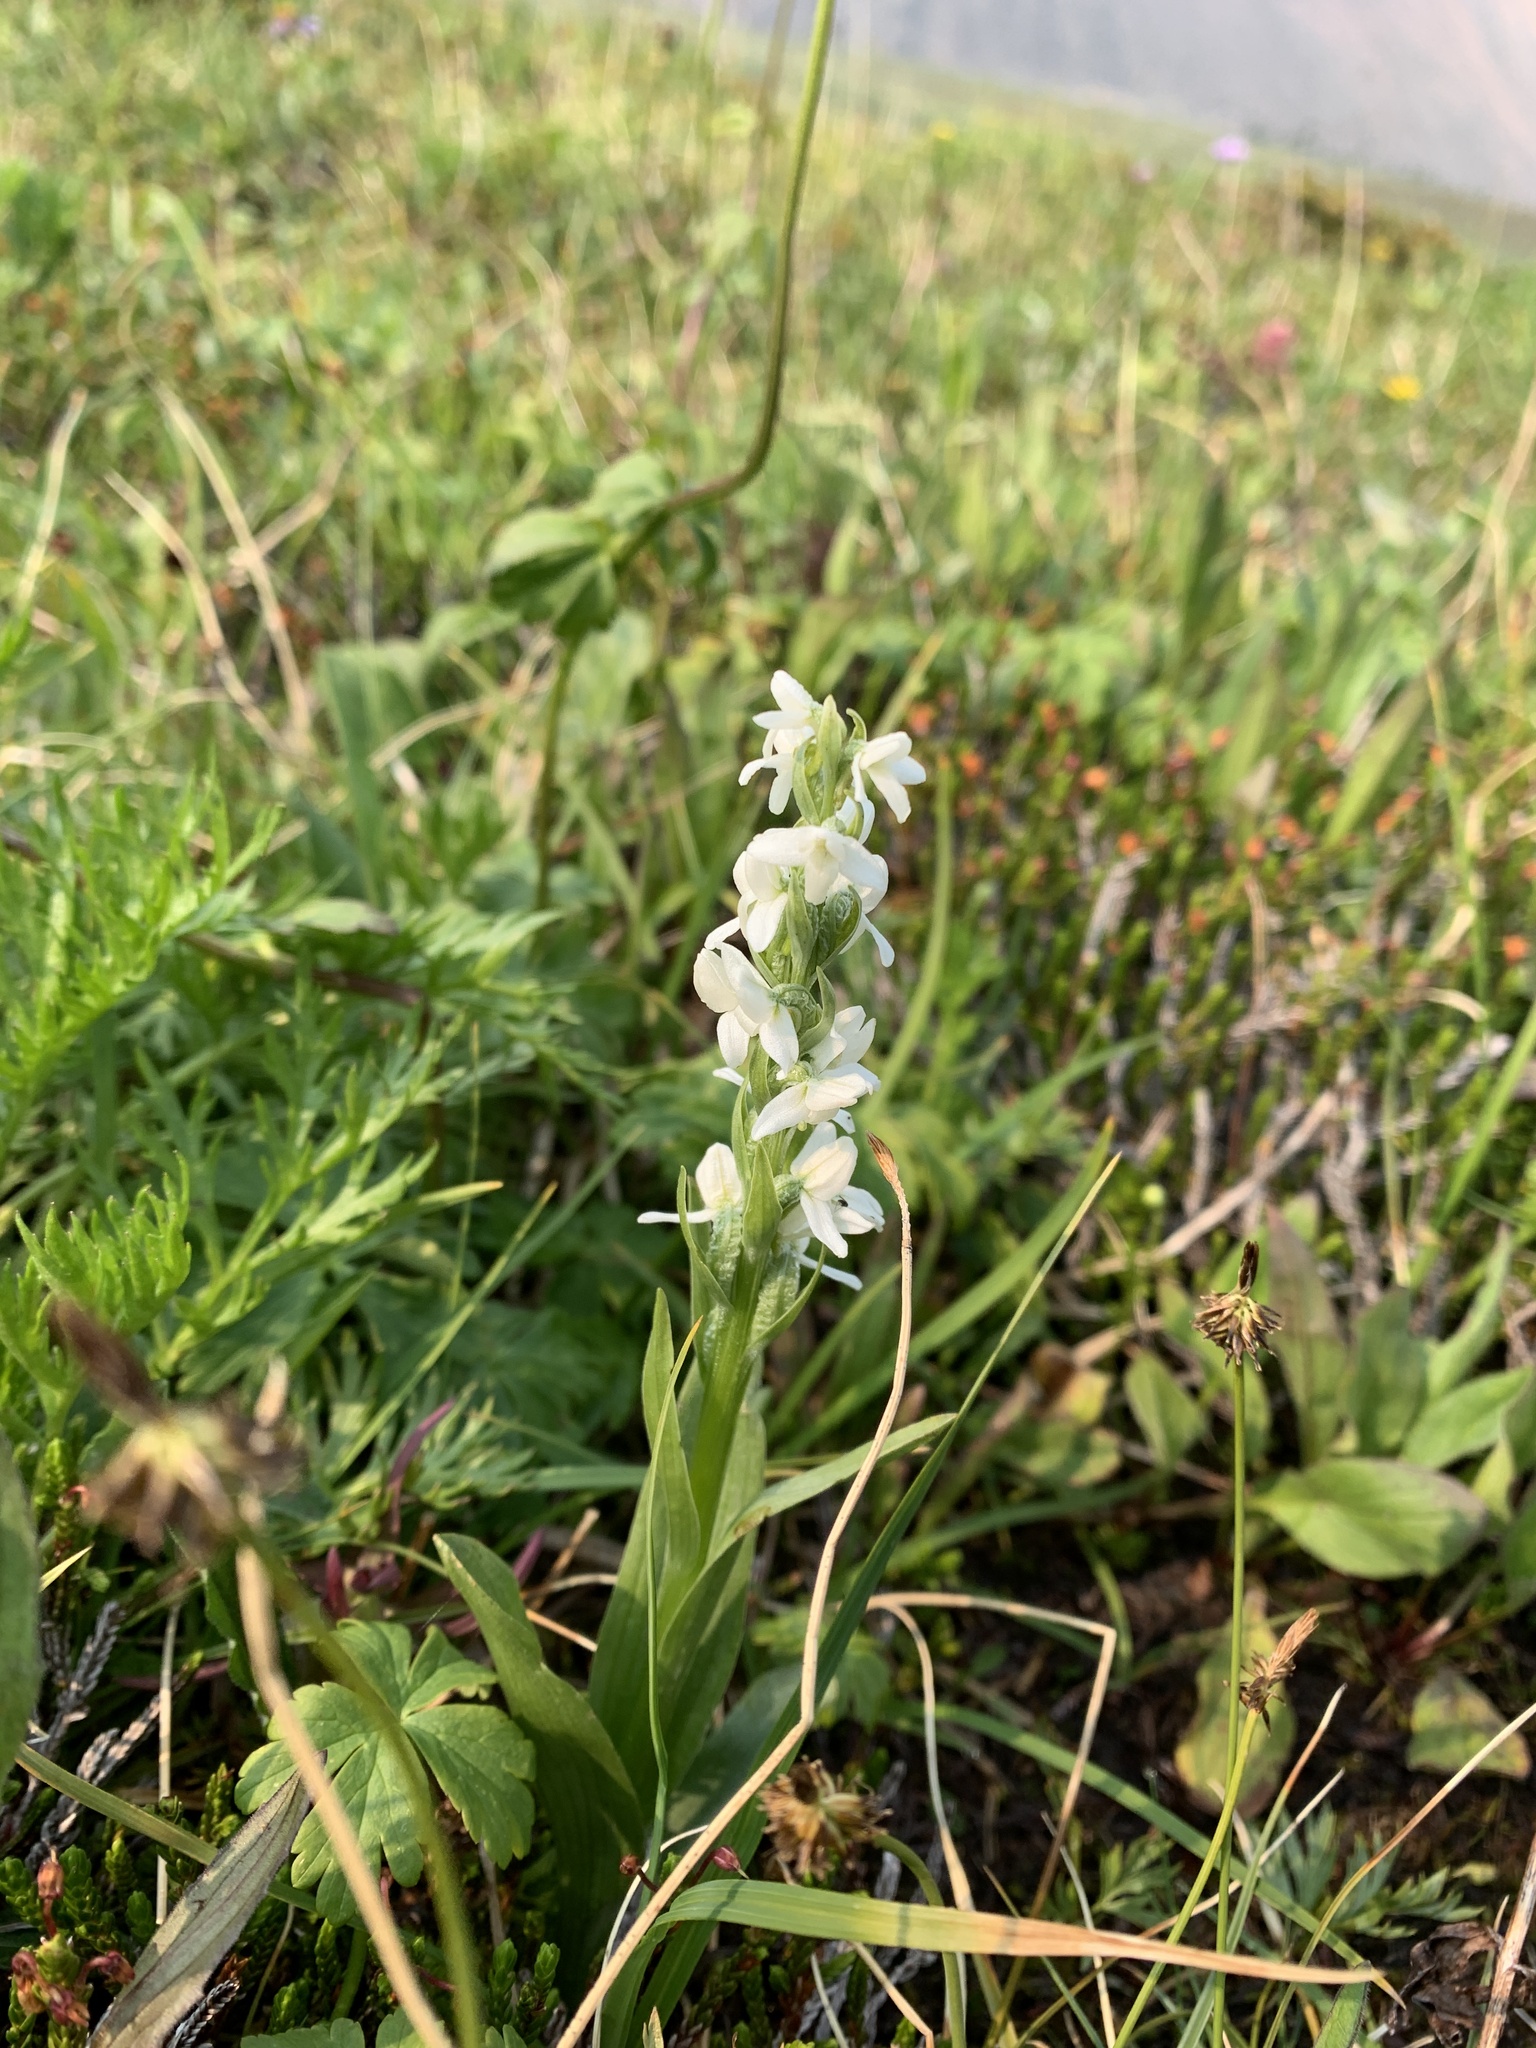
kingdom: Plantae
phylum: Tracheophyta
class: Liliopsida
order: Asparagales
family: Orchidaceae
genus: Platanthera
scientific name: Platanthera dilatata
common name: Bog candles
